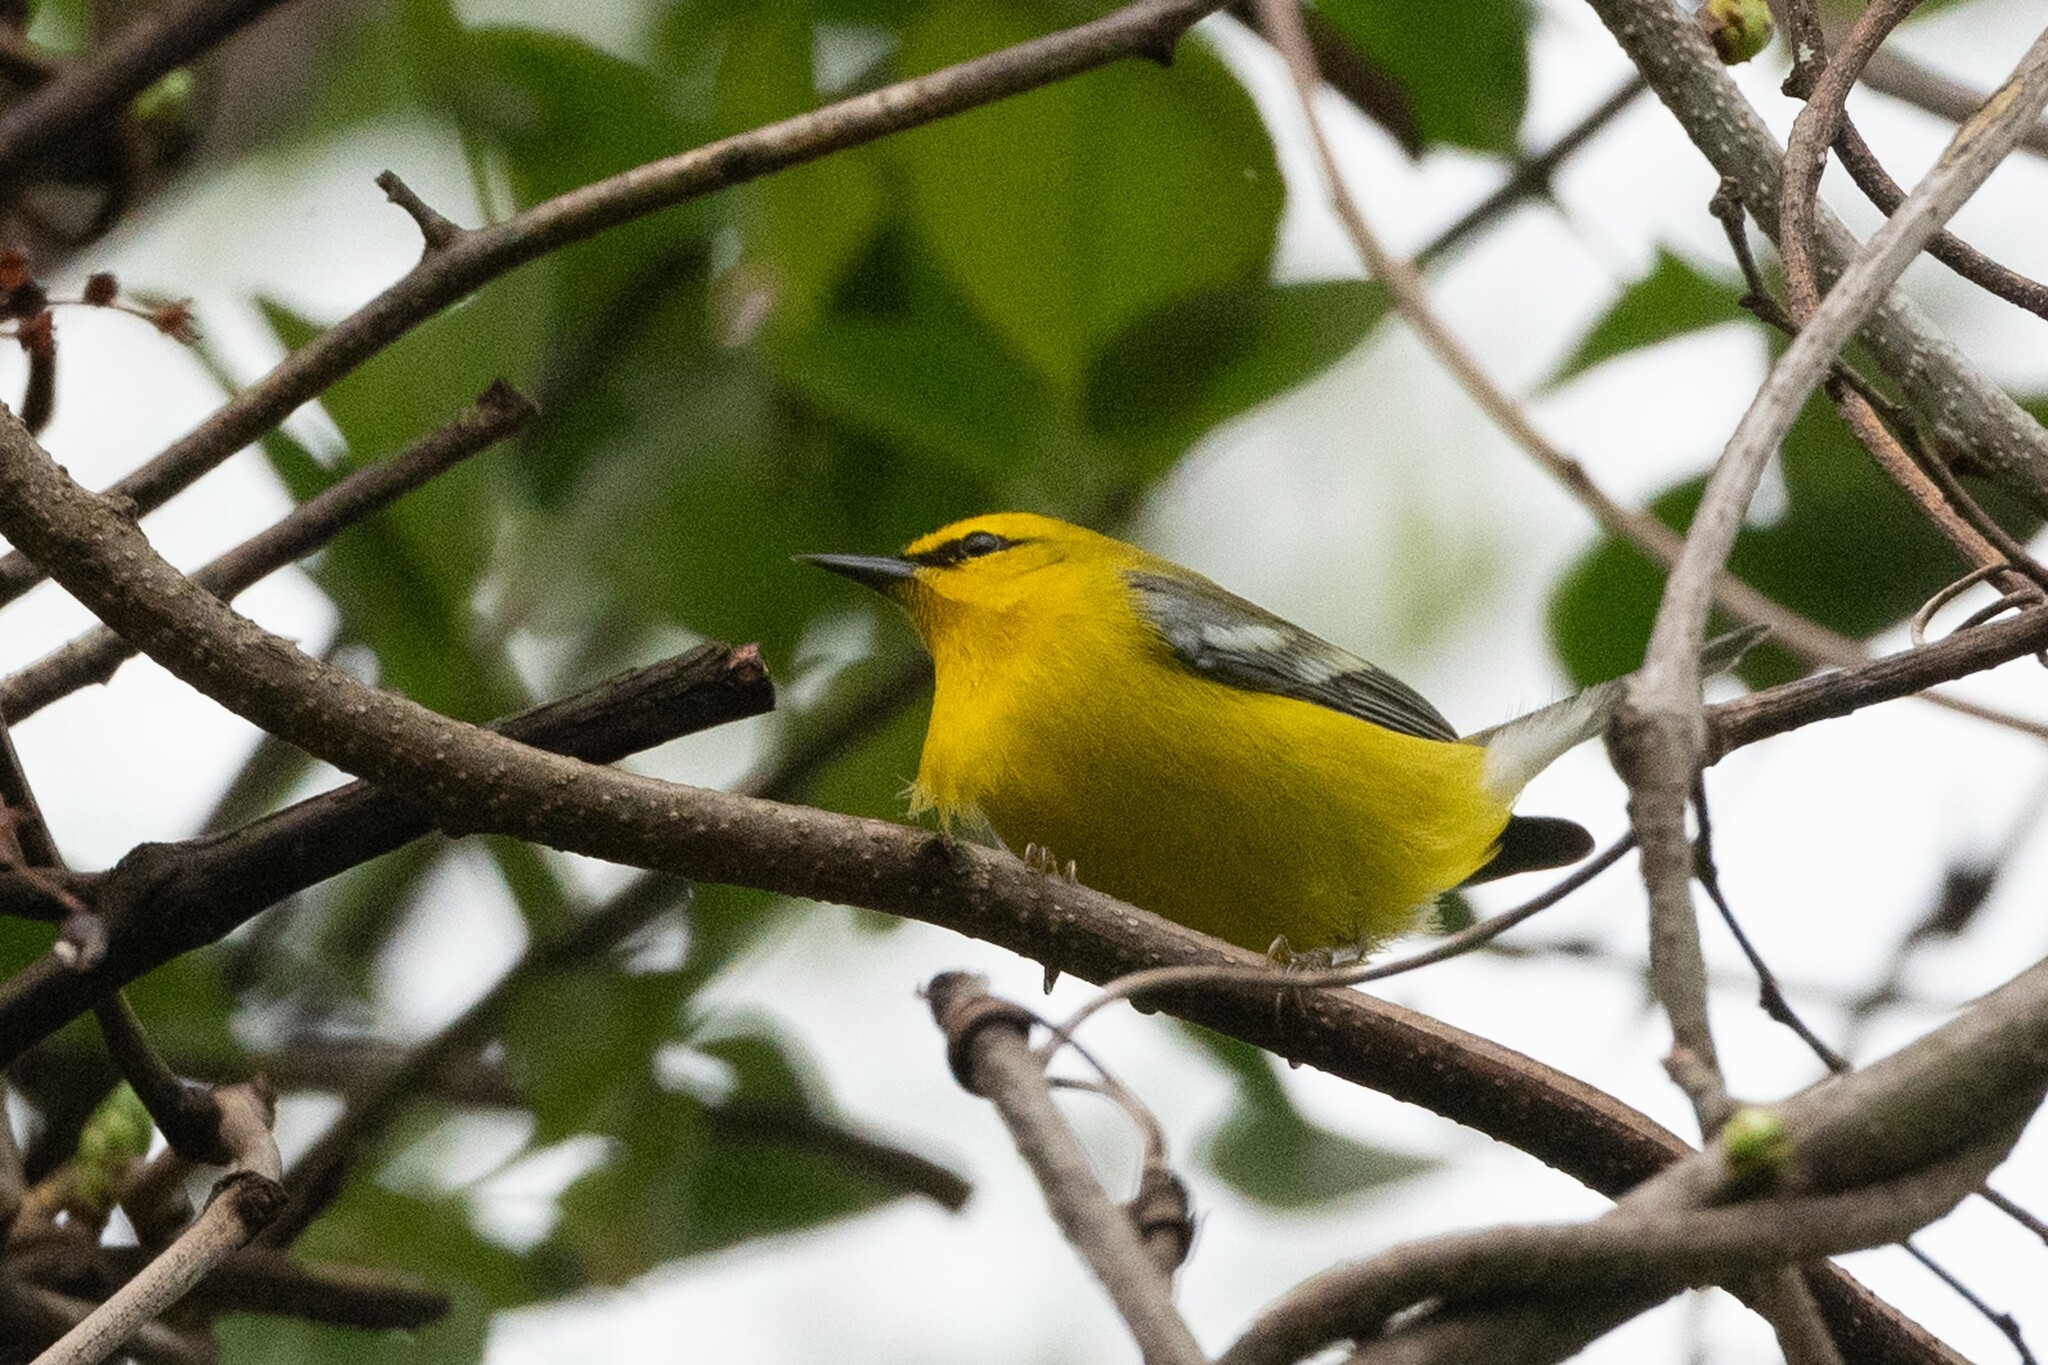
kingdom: Animalia
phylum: Chordata
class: Aves
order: Passeriformes
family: Parulidae
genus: Vermivora
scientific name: Vermivora cyanoptera
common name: Blue-winged warbler
